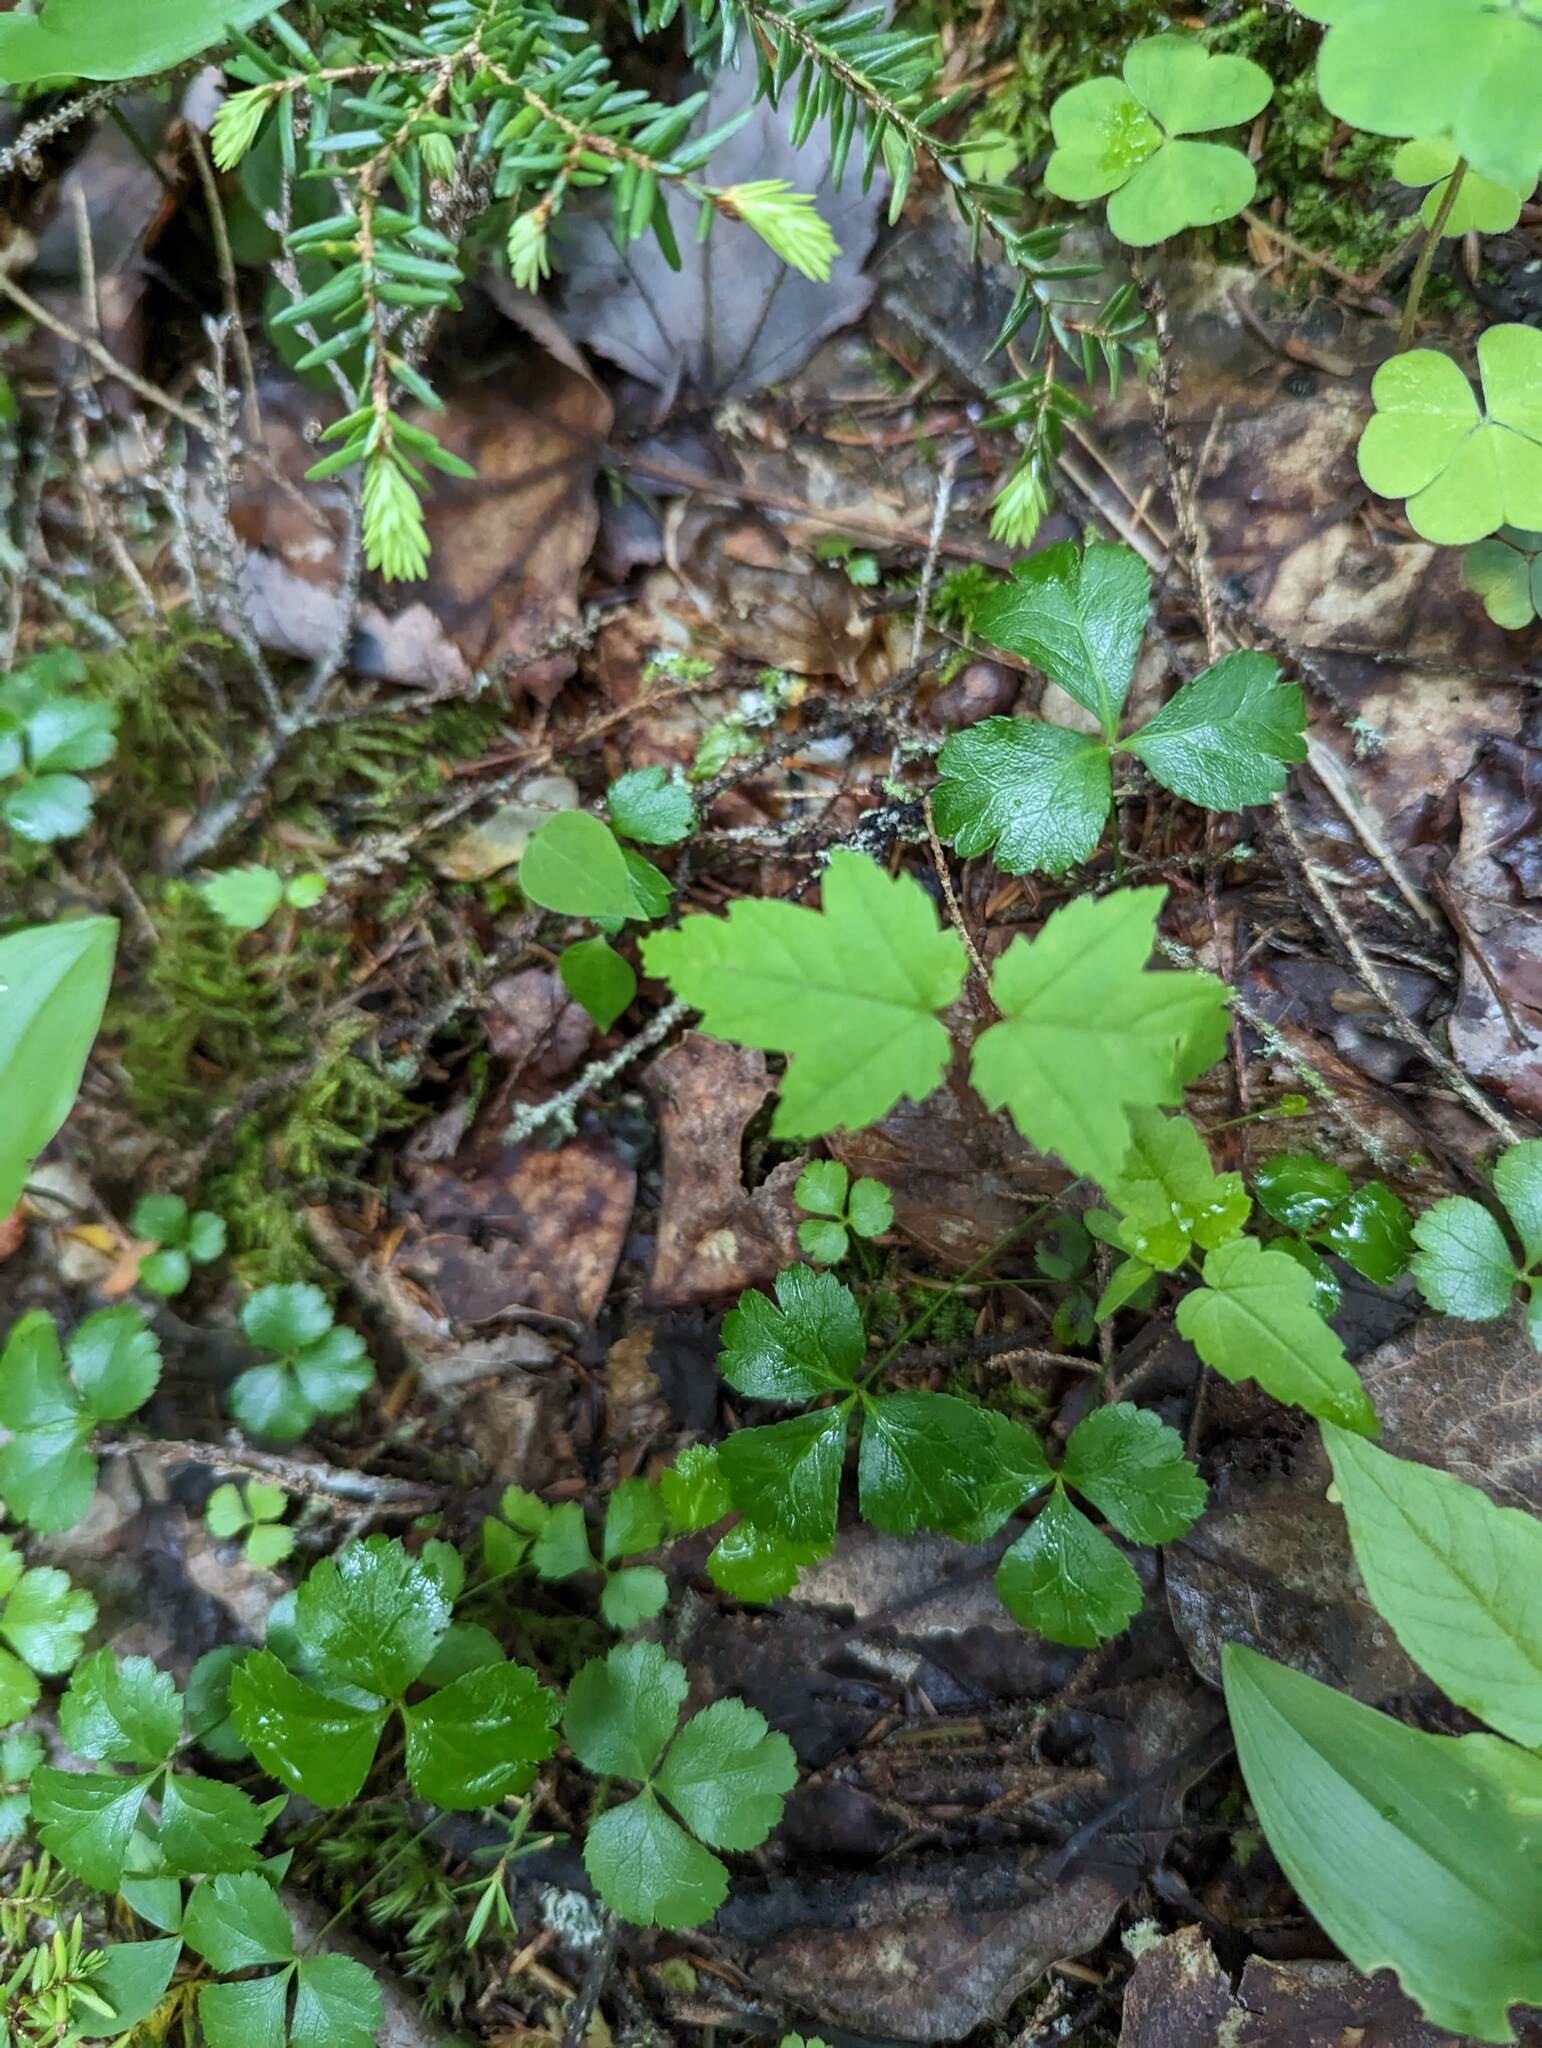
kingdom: Plantae
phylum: Tracheophyta
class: Magnoliopsida
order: Sapindales
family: Sapindaceae
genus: Acer
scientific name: Acer rubrum
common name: Red maple
